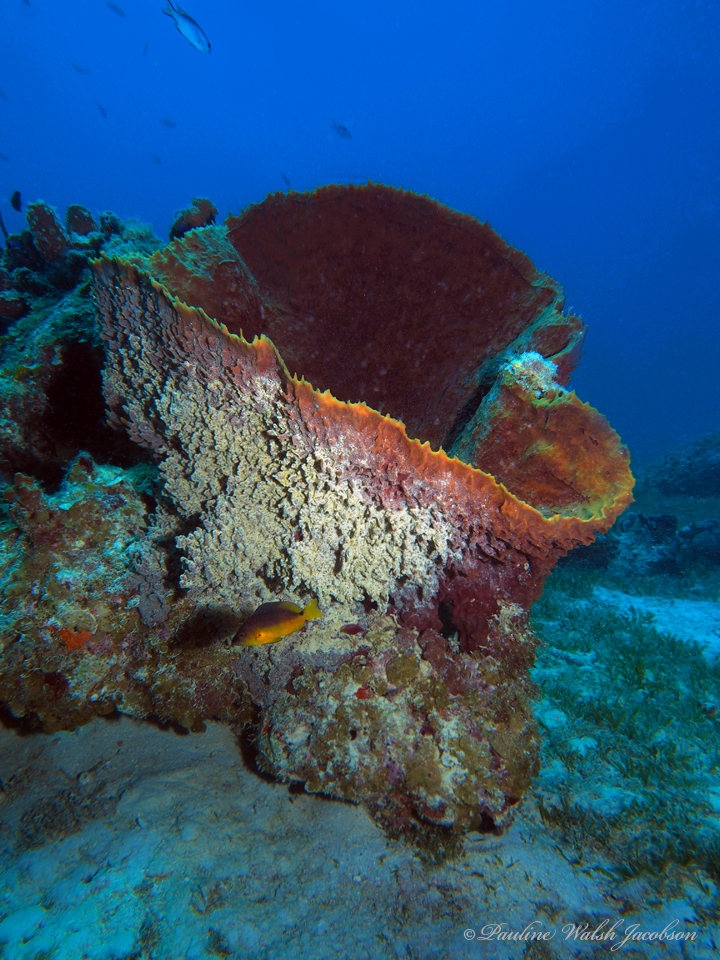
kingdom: Animalia
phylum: Porifera
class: Demospongiae
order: Haplosclerida
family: Petrosiidae
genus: Xestospongia
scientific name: Xestospongia muta
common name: Giant barrel sponge
